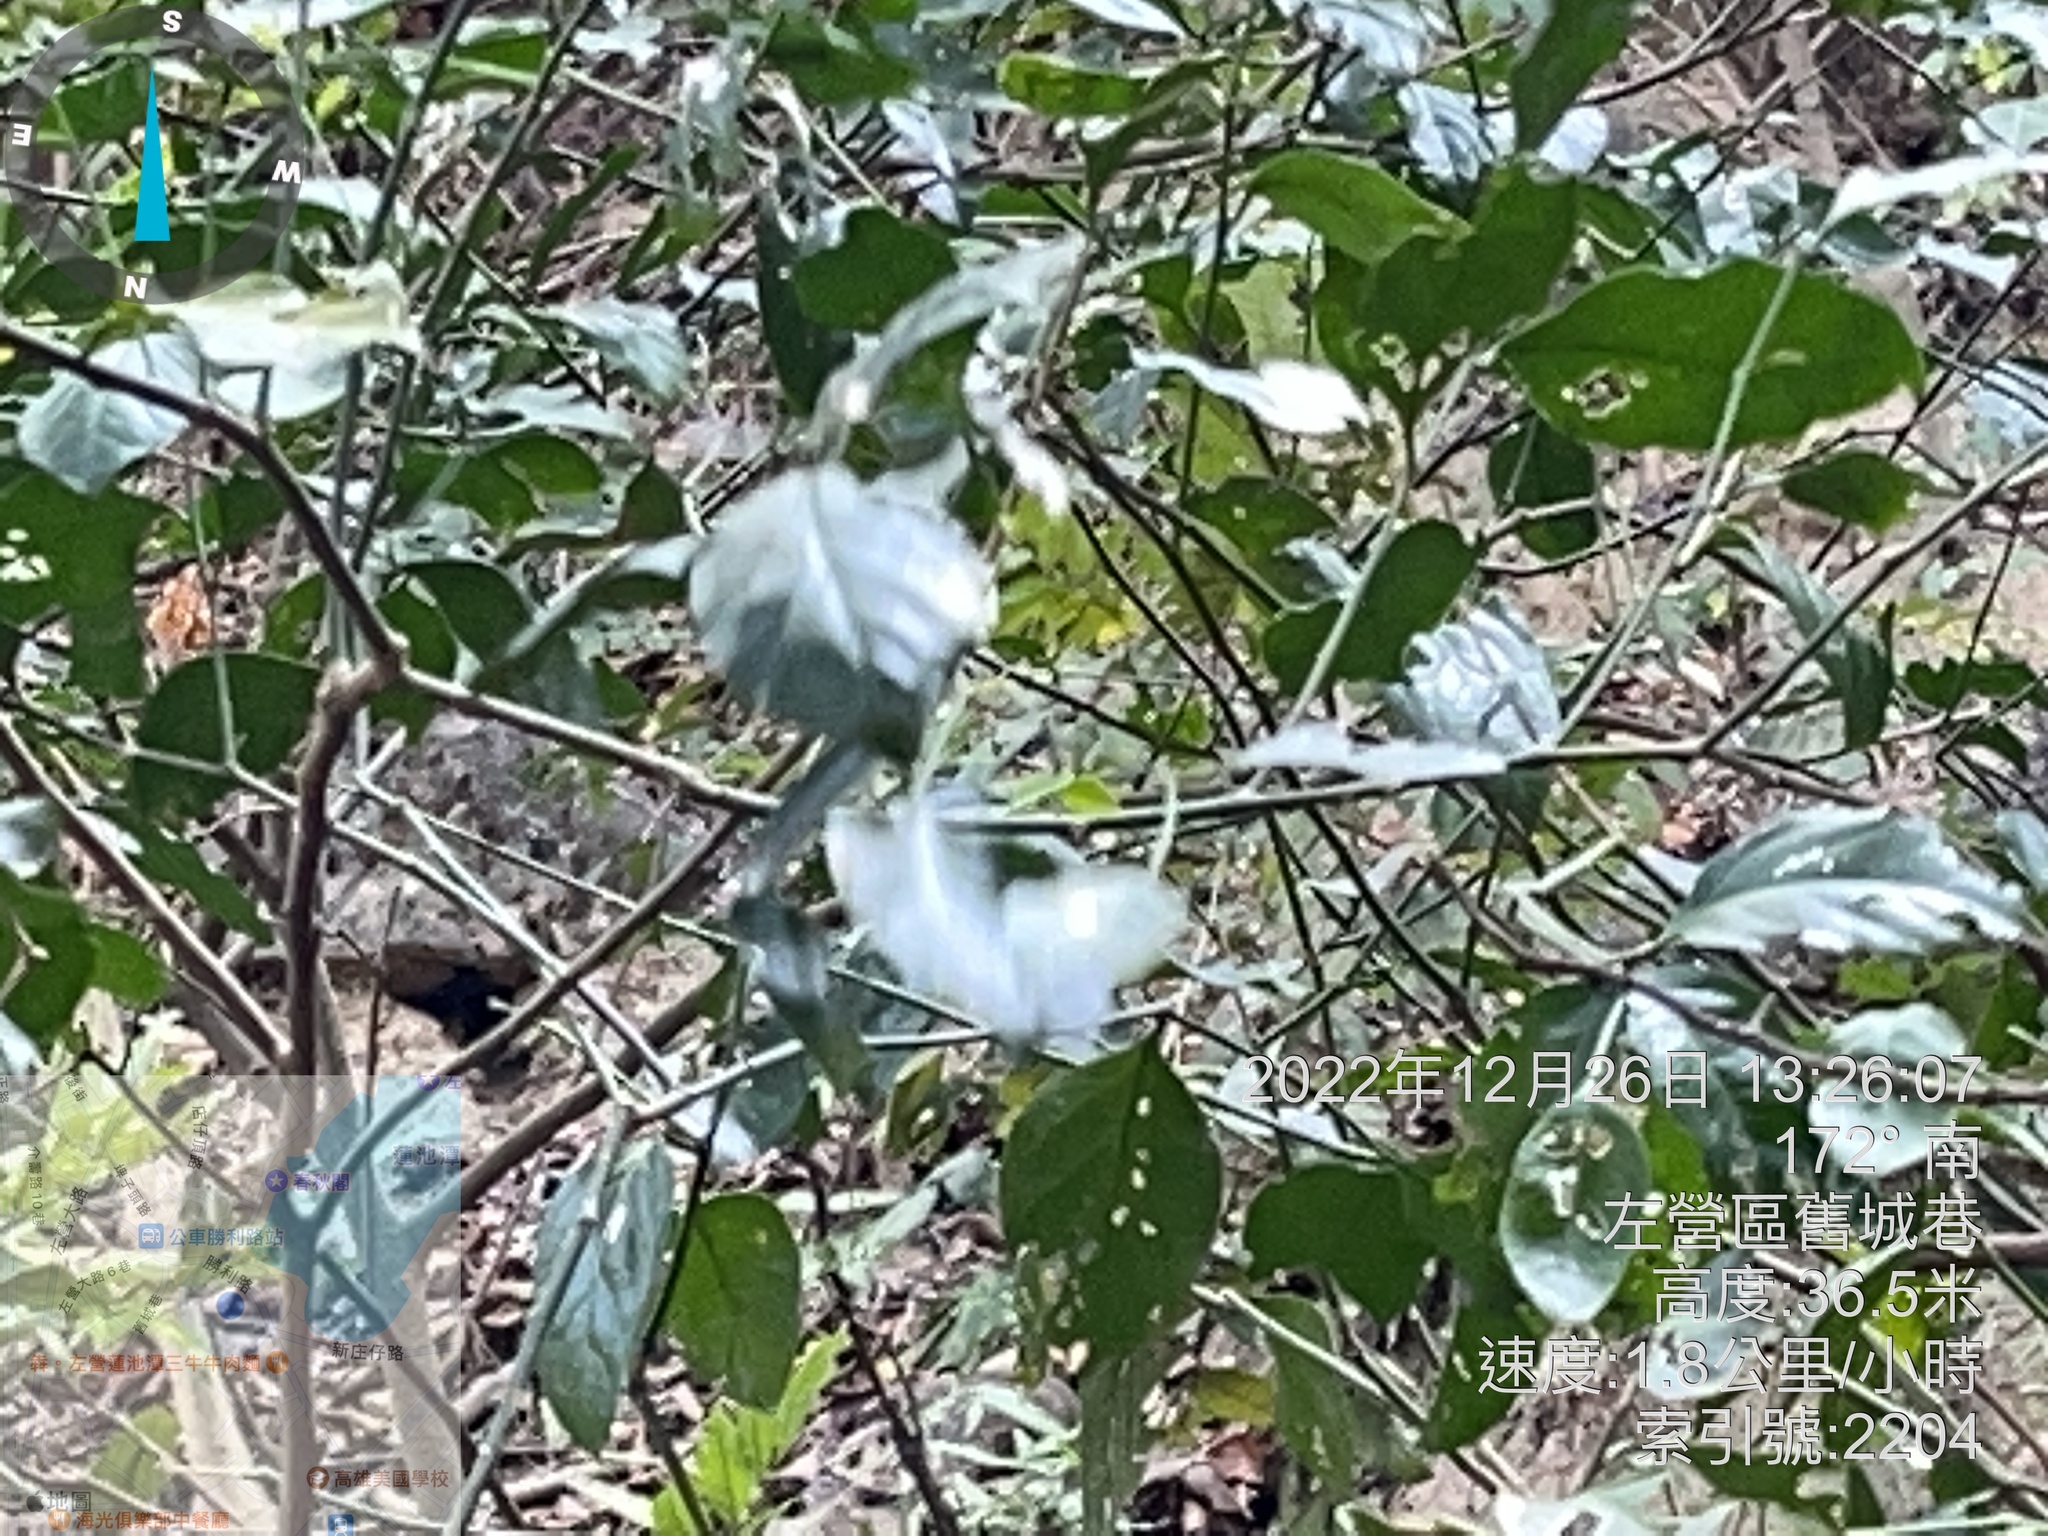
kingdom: Plantae
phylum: Tracheophyta
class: Magnoliopsida
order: Santalales
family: Opiliaceae
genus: Champereia
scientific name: Champereia manillana
